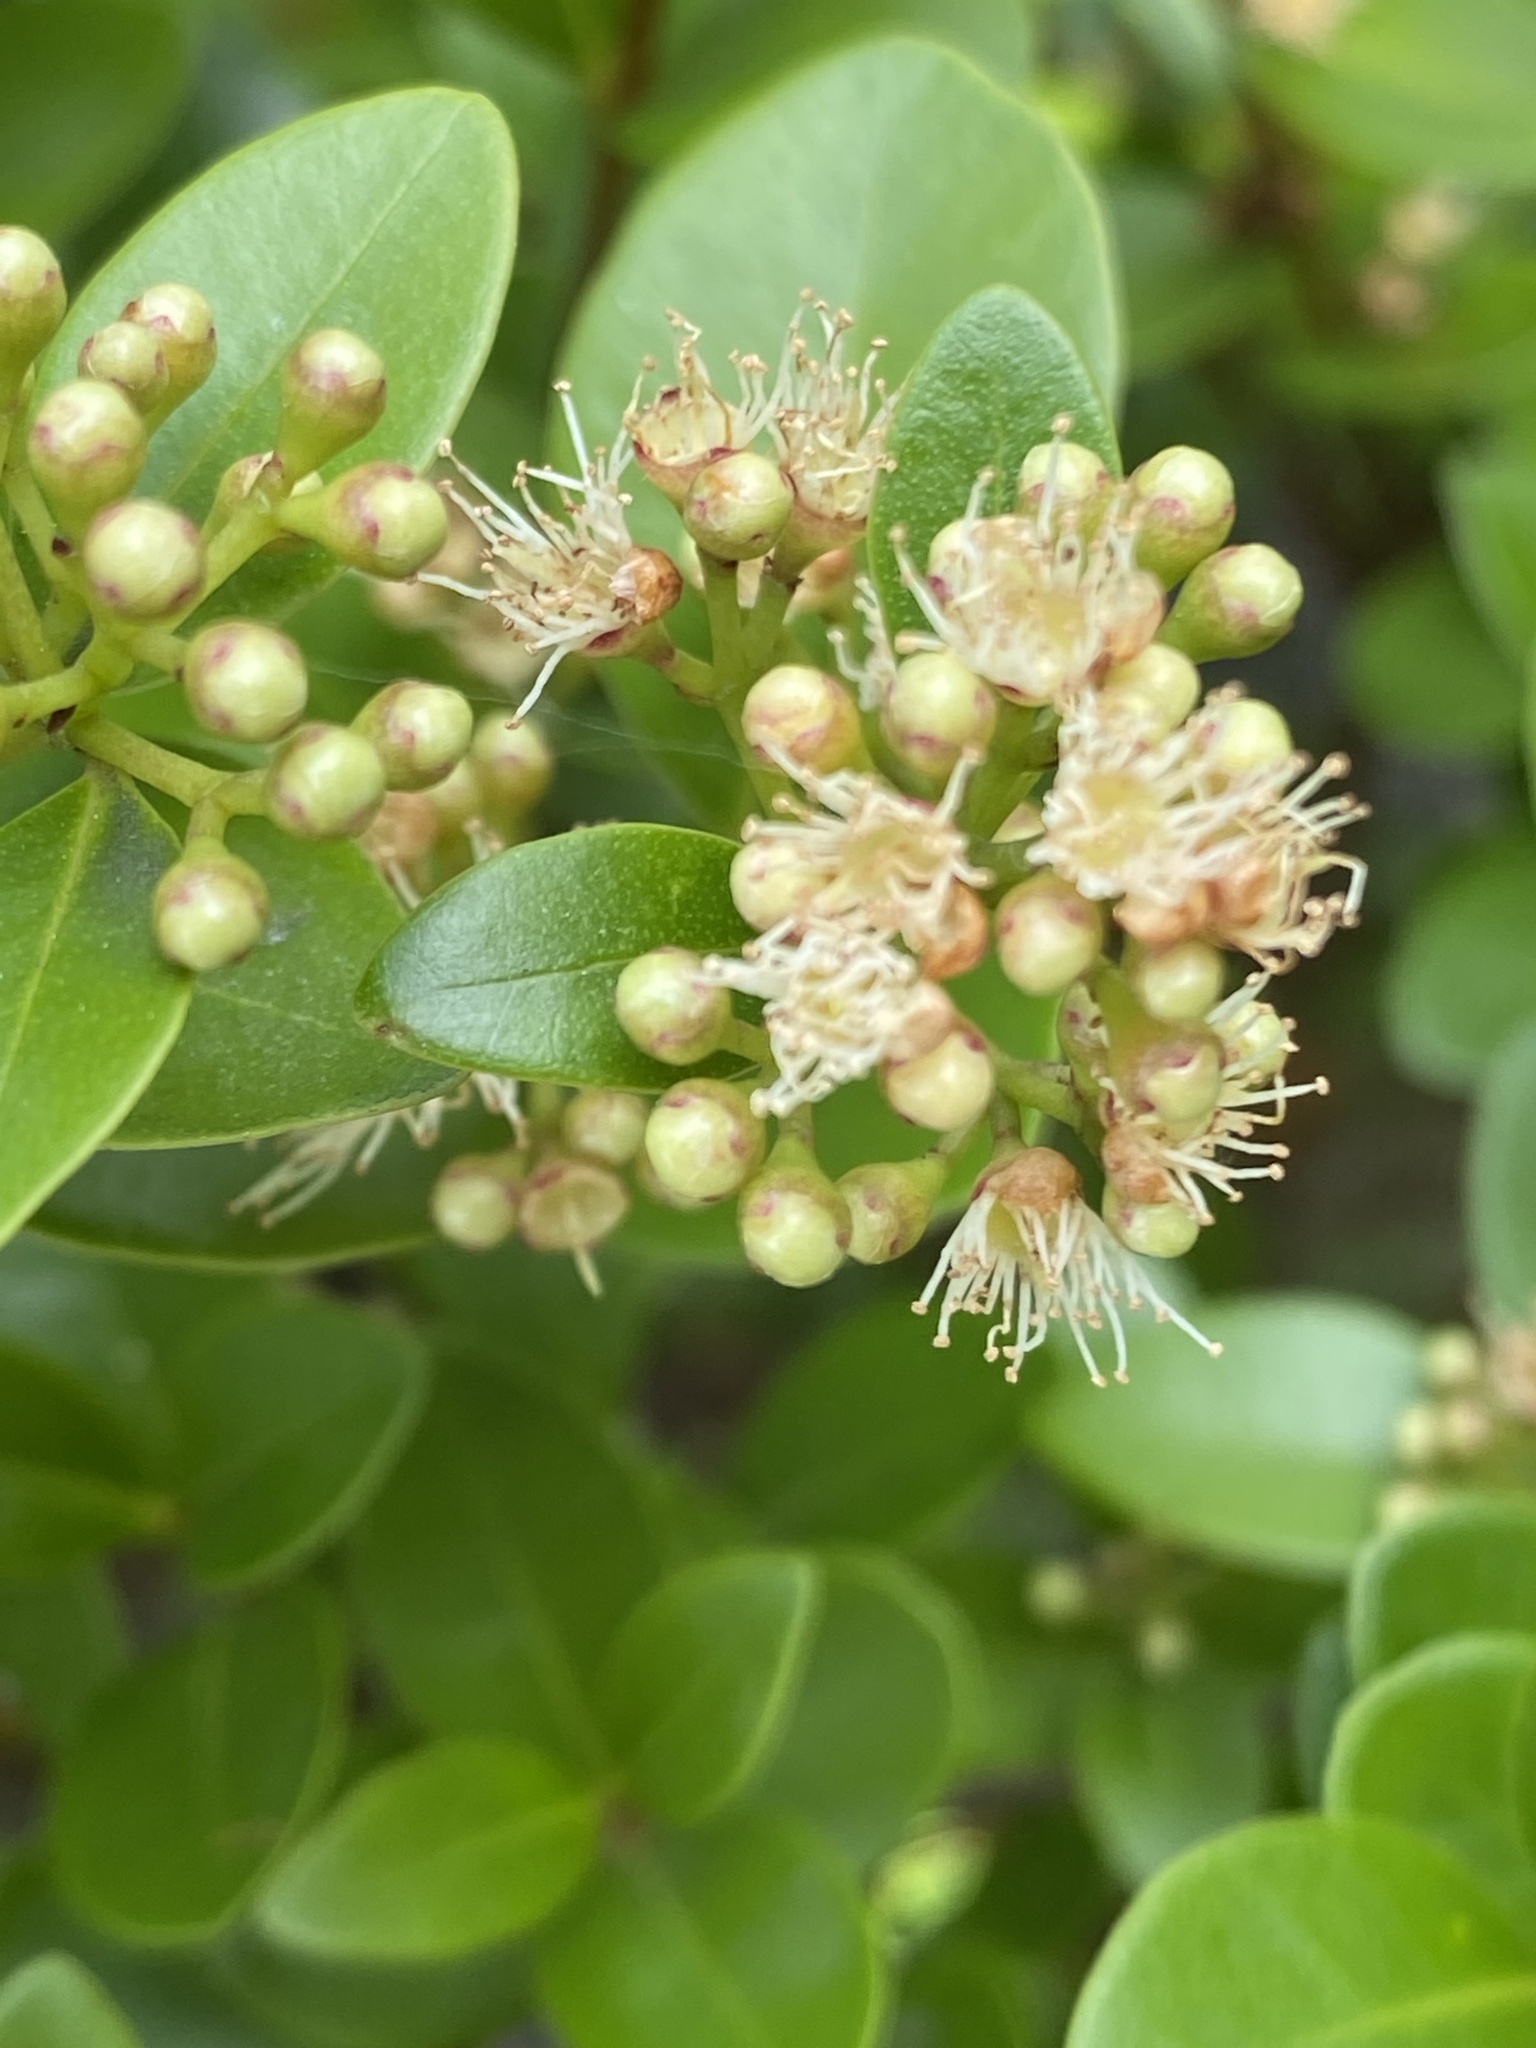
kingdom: Plantae
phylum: Tracheophyta
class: Magnoliopsida
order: Myrtales
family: Myrtaceae
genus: Syzygium
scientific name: Syzygium elliptifolium
